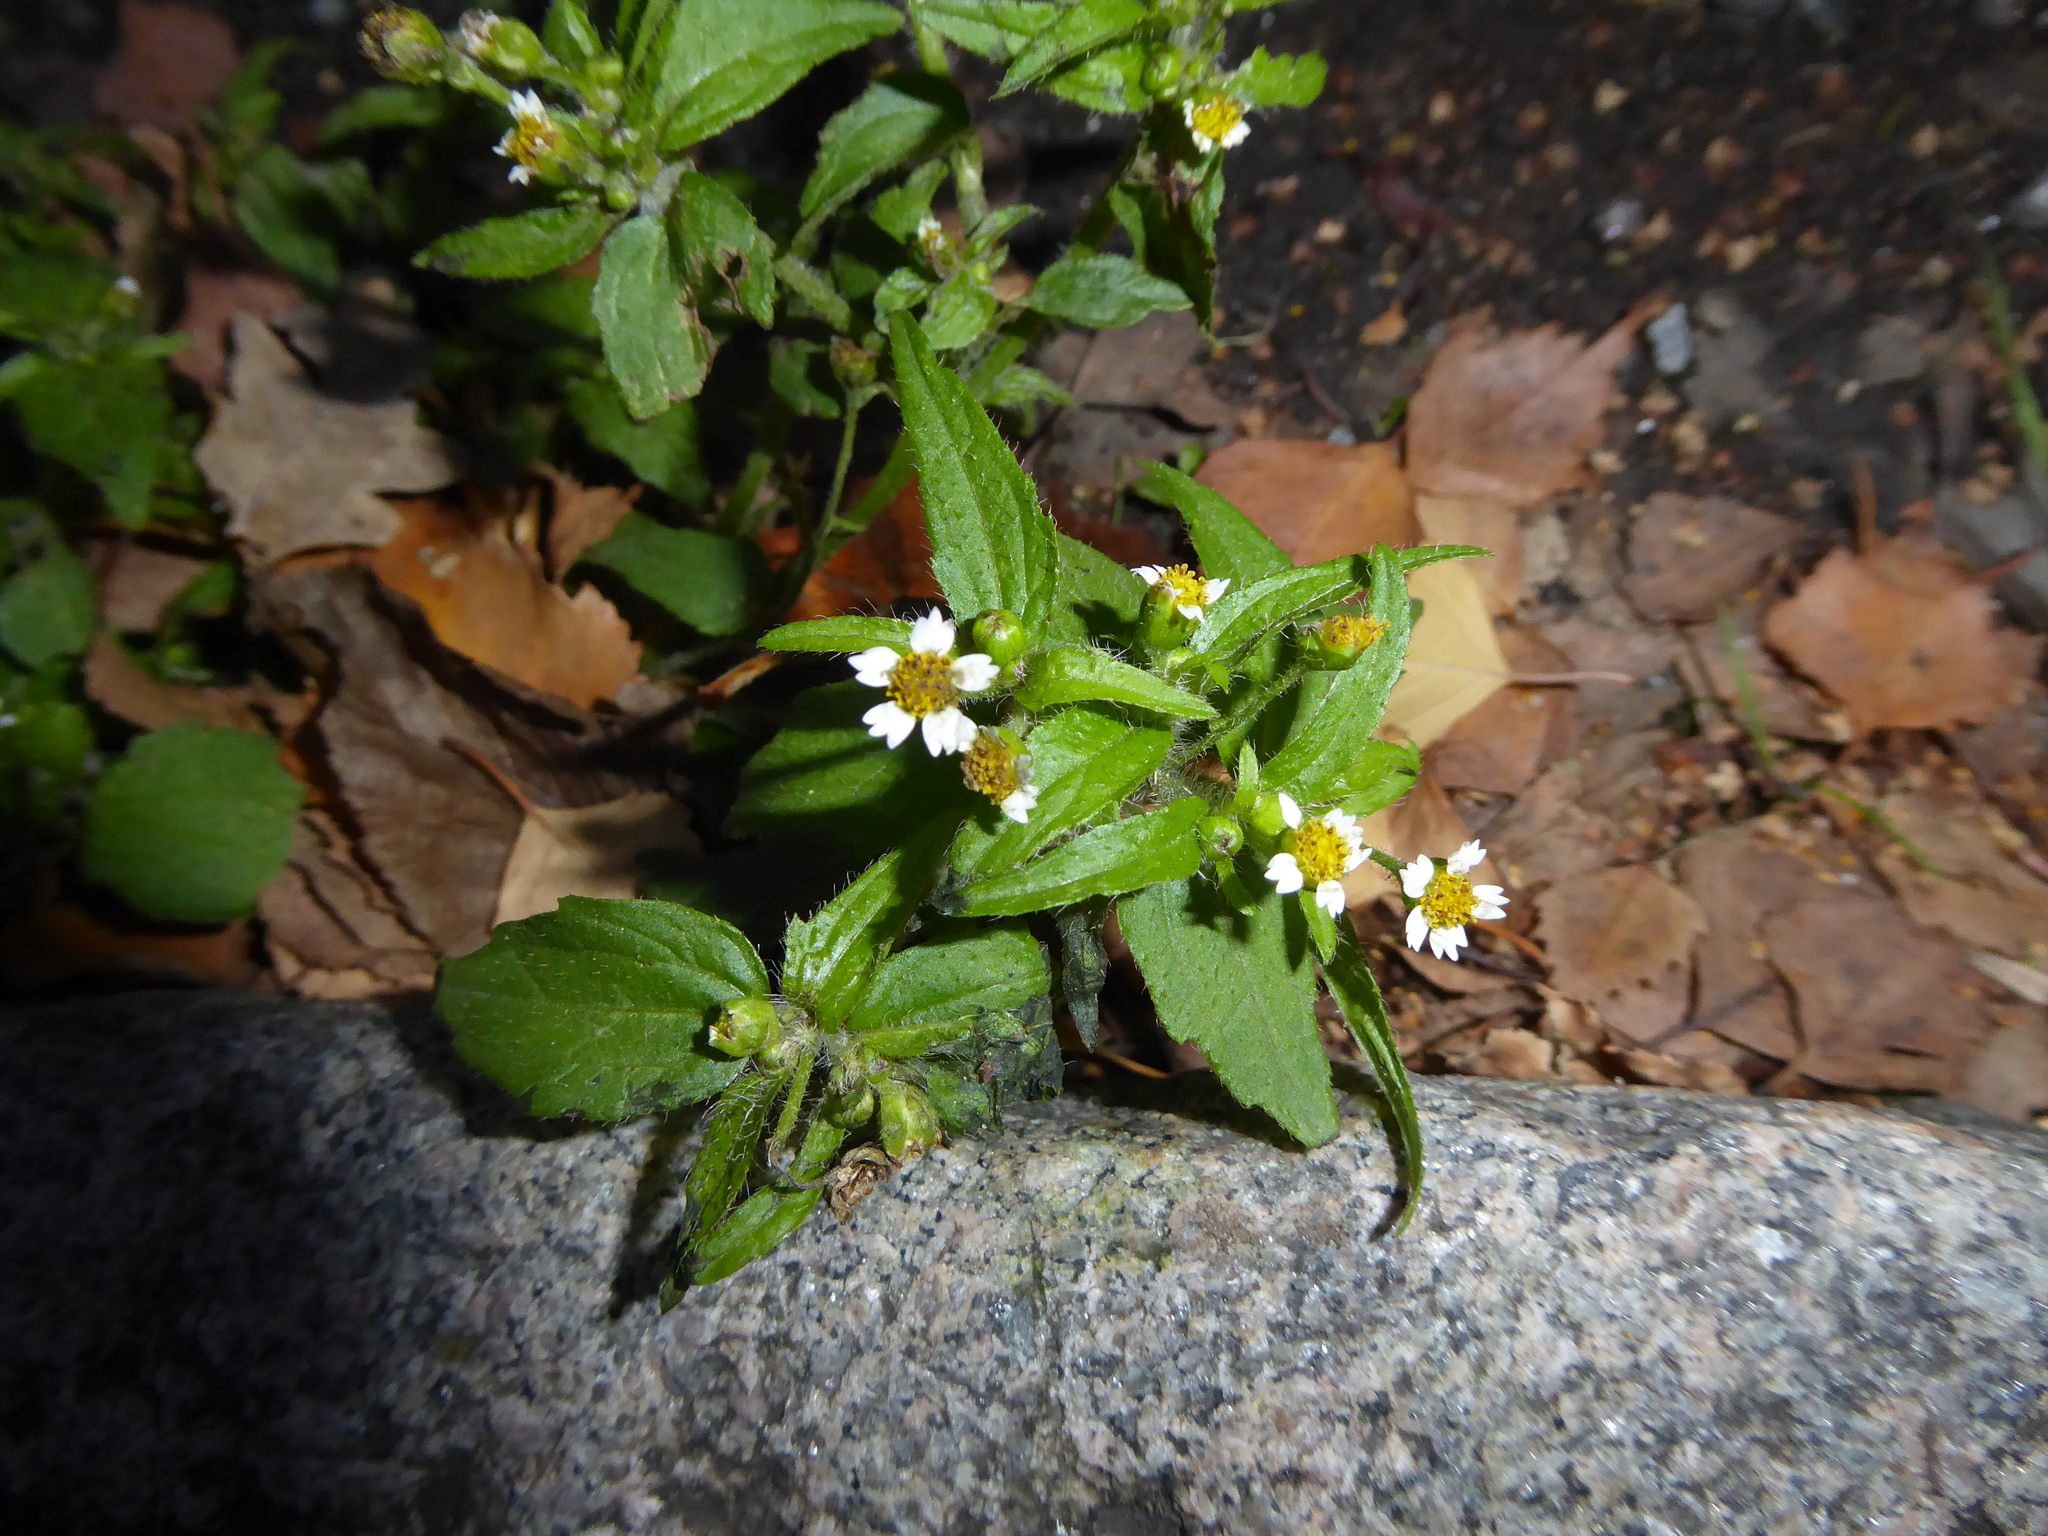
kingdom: Plantae
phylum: Tracheophyta
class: Magnoliopsida
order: Asterales
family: Asteraceae
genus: Galinsoga
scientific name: Galinsoga quadriradiata
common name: Shaggy soldier
